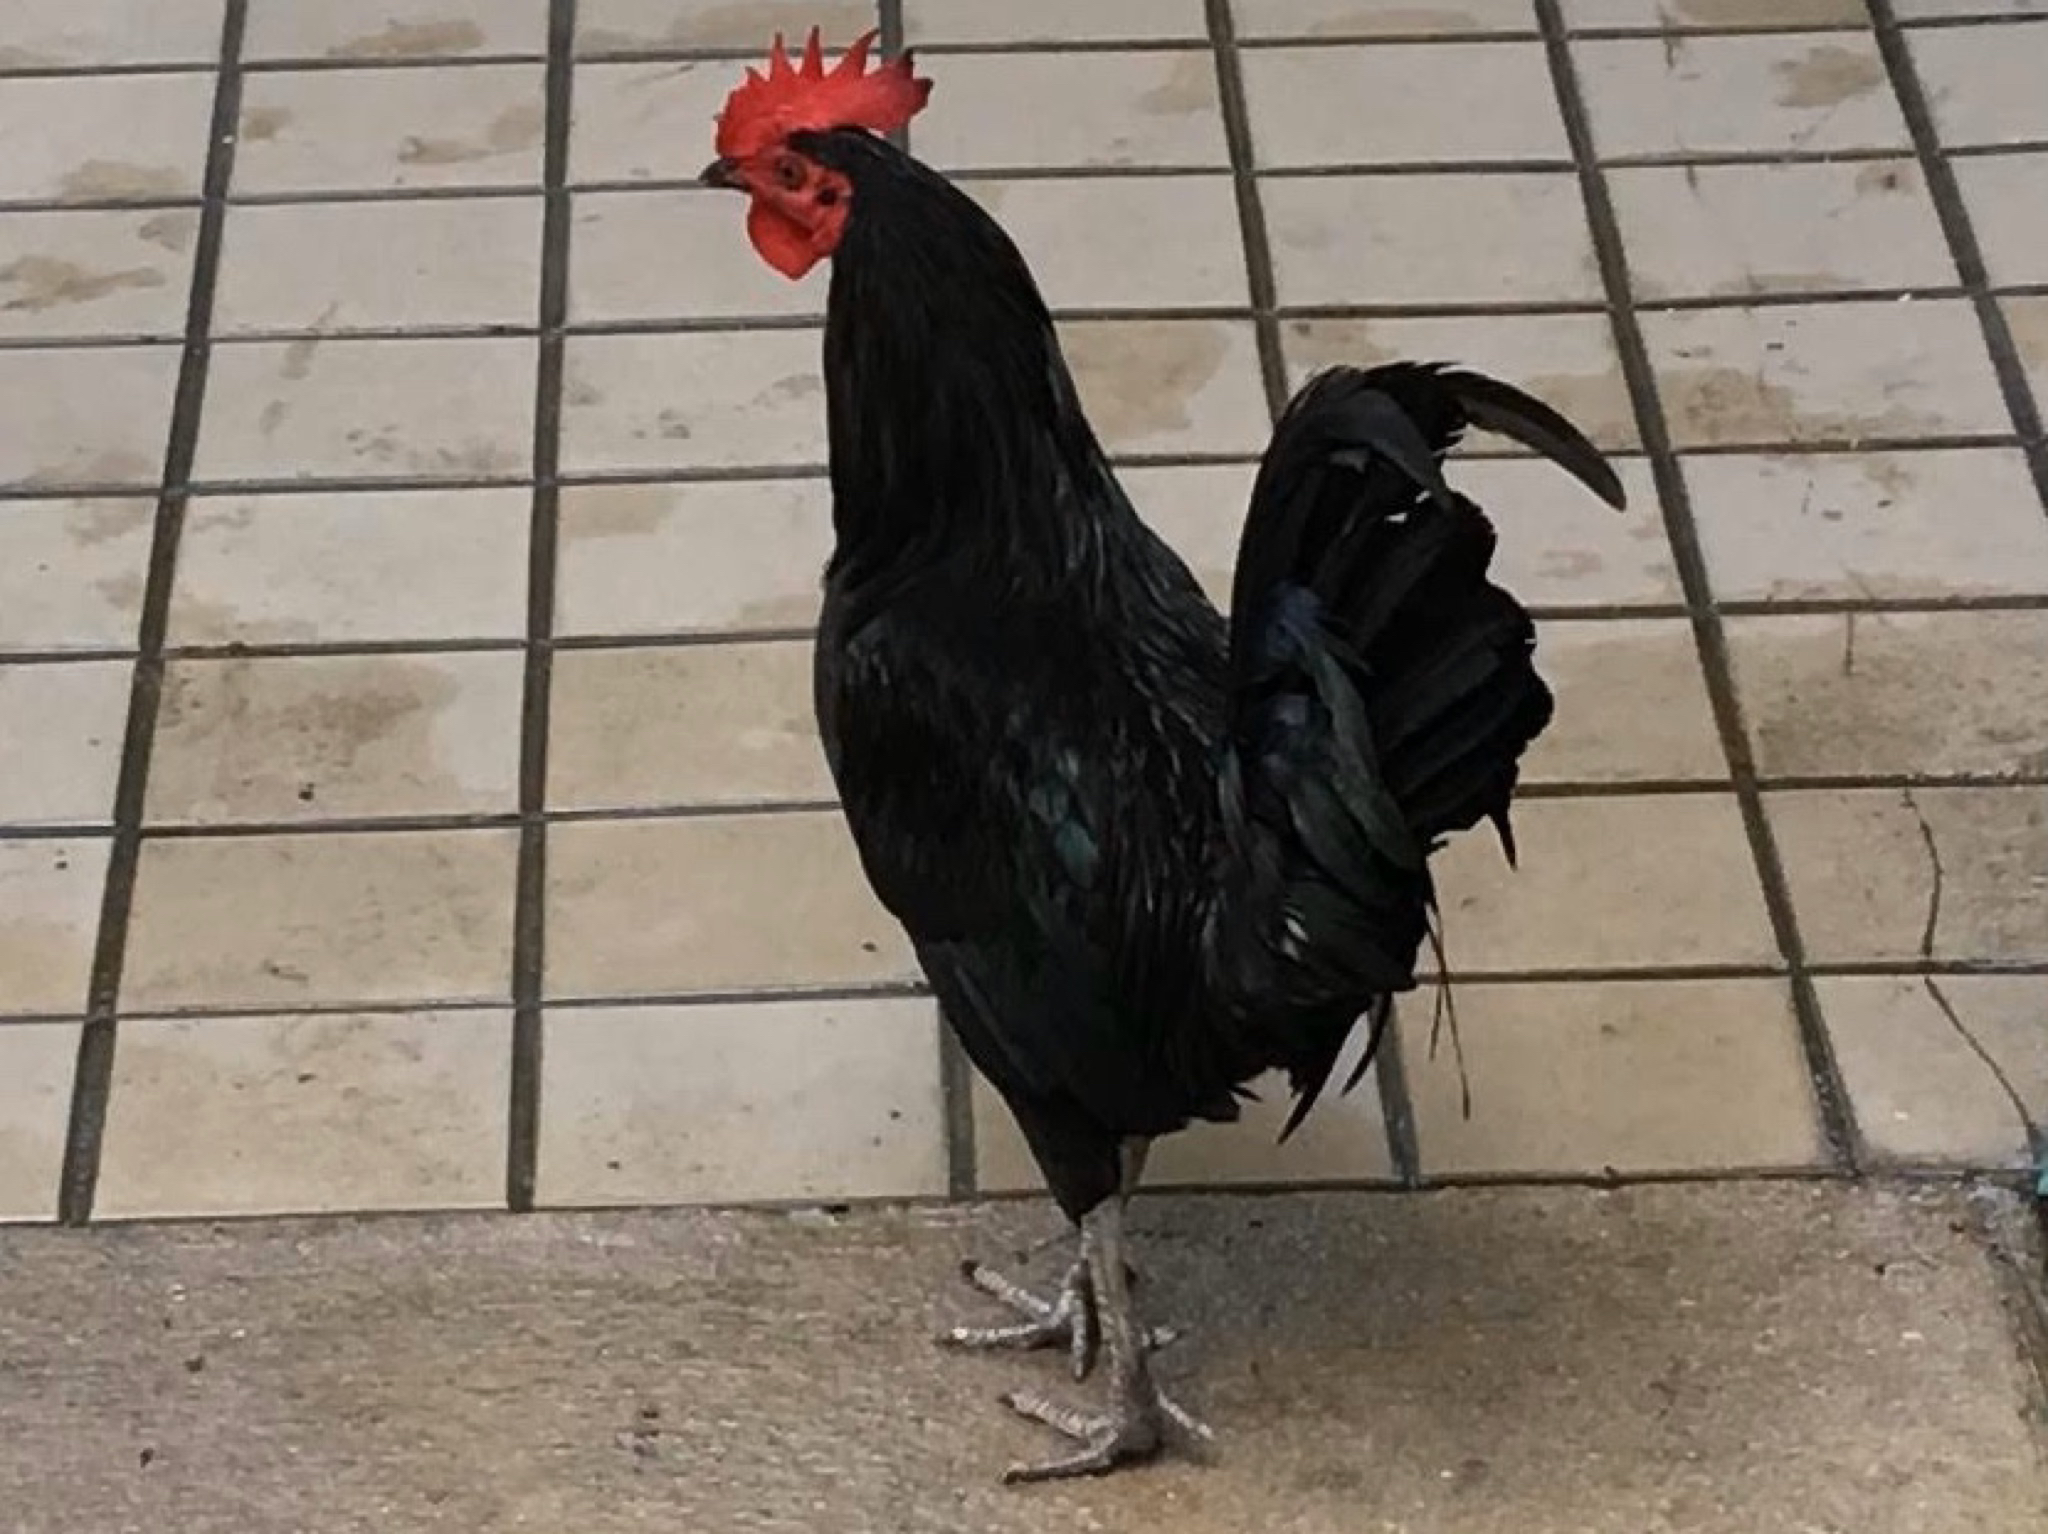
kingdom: Animalia
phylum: Chordata
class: Aves
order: Galliformes
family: Phasianidae
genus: Gallus
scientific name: Gallus gallus
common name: Red junglefowl
